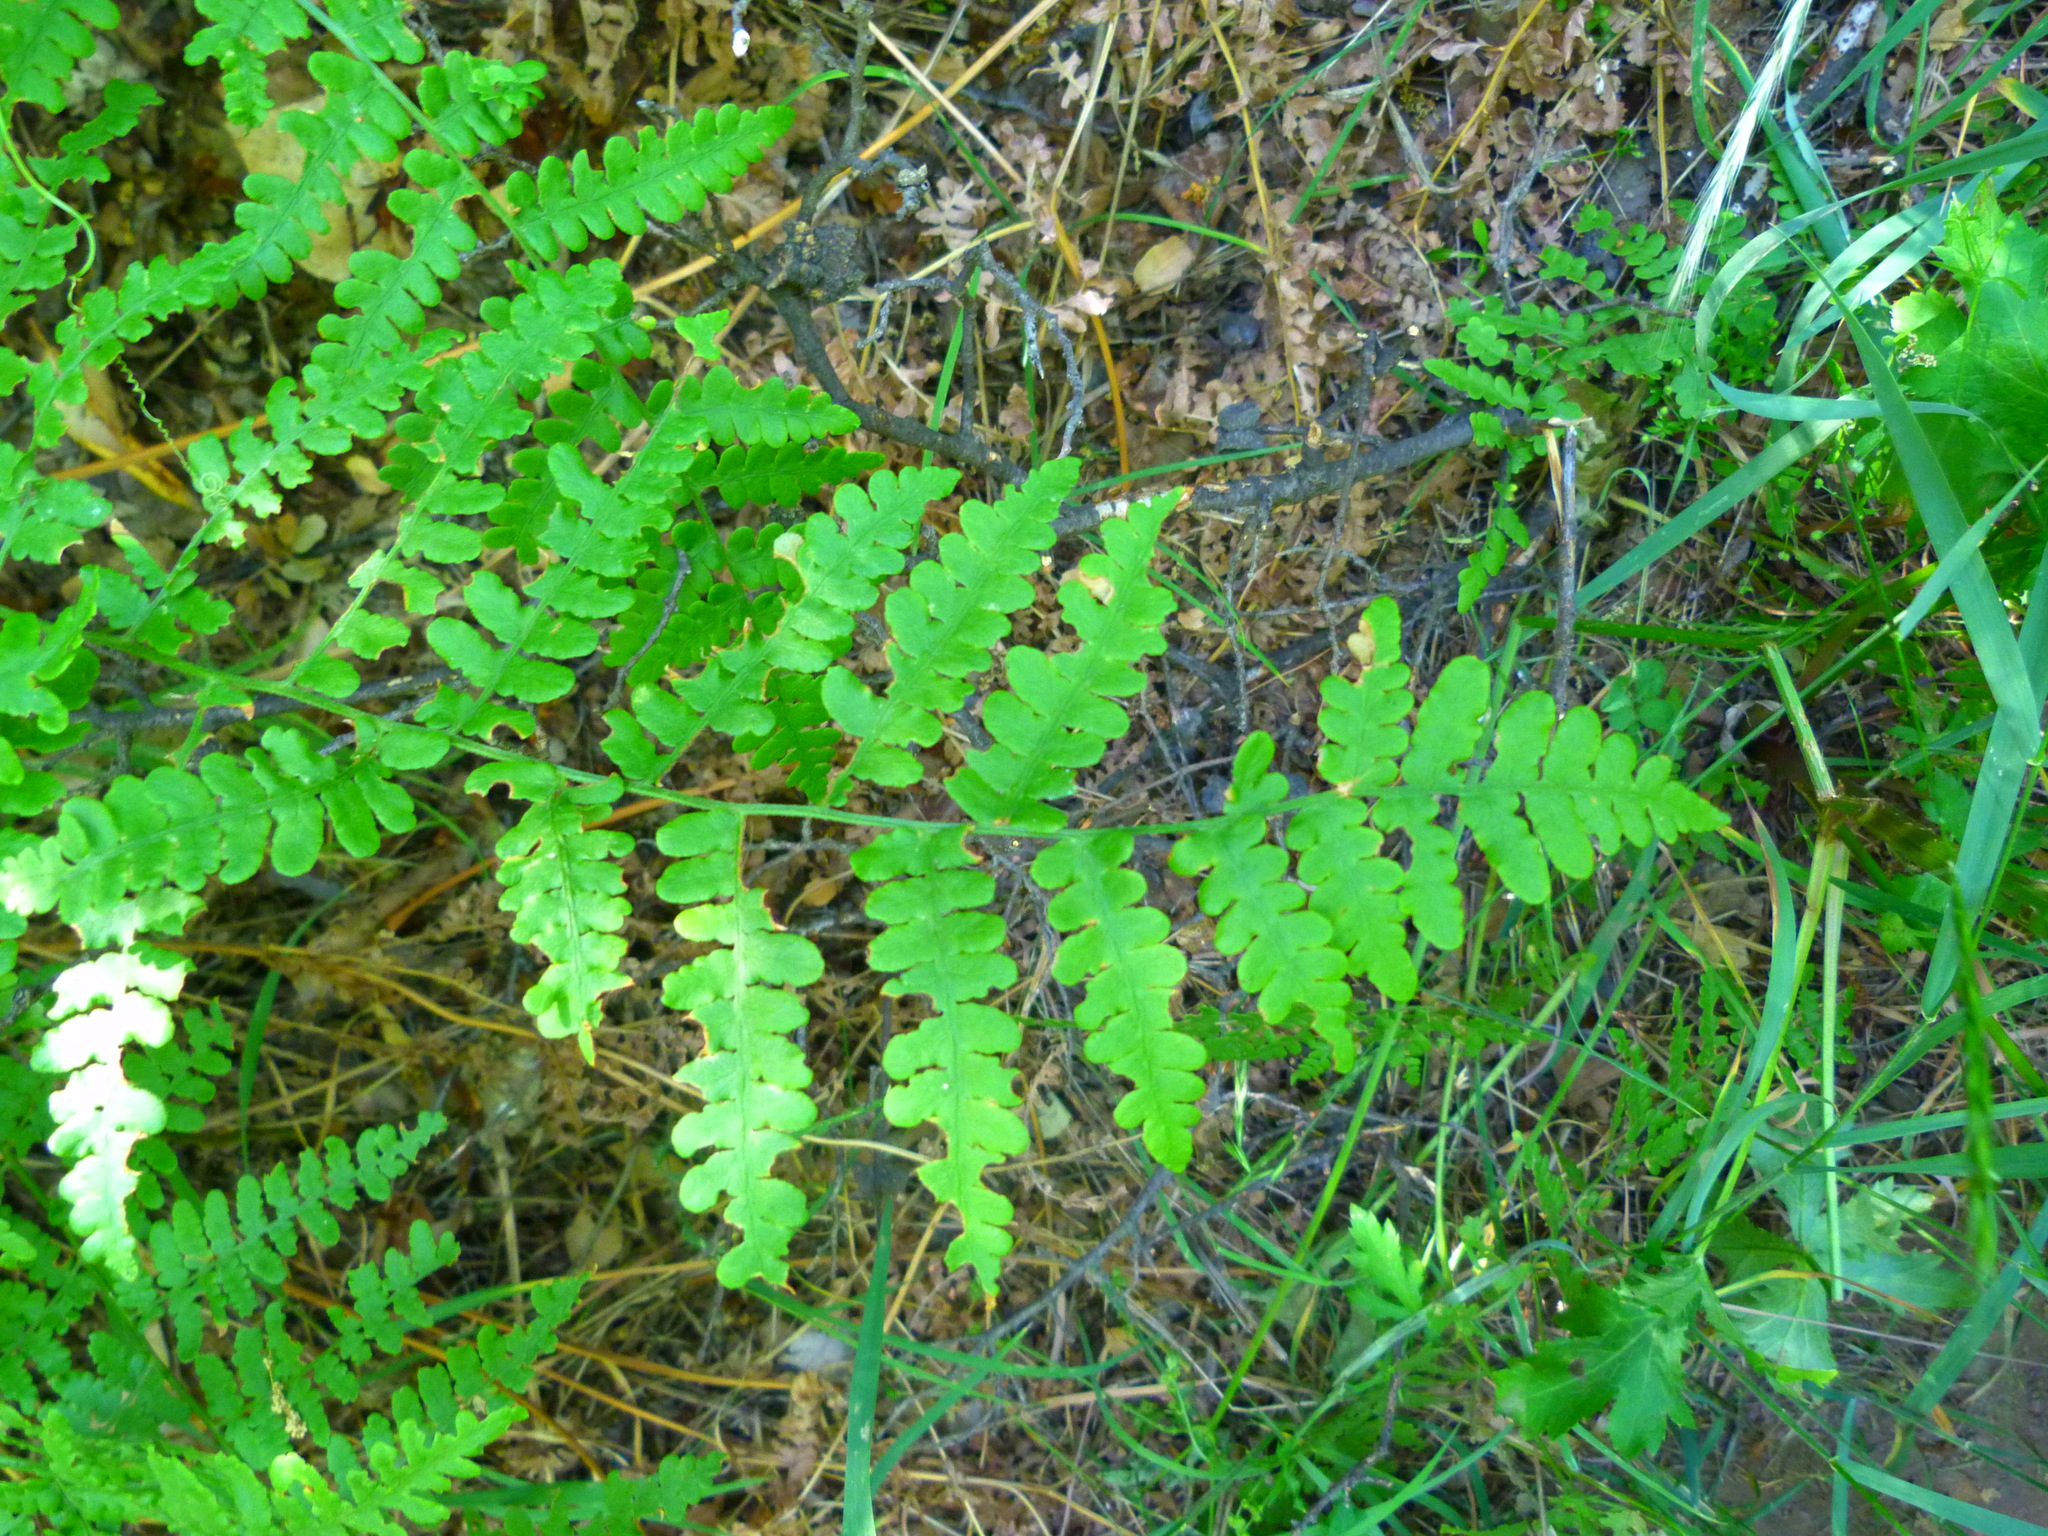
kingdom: Plantae
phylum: Tracheophyta
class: Polypodiopsida
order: Polypodiales
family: Dennstaedtiaceae
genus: Pteridium
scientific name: Pteridium aquilinum
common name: Bracken
